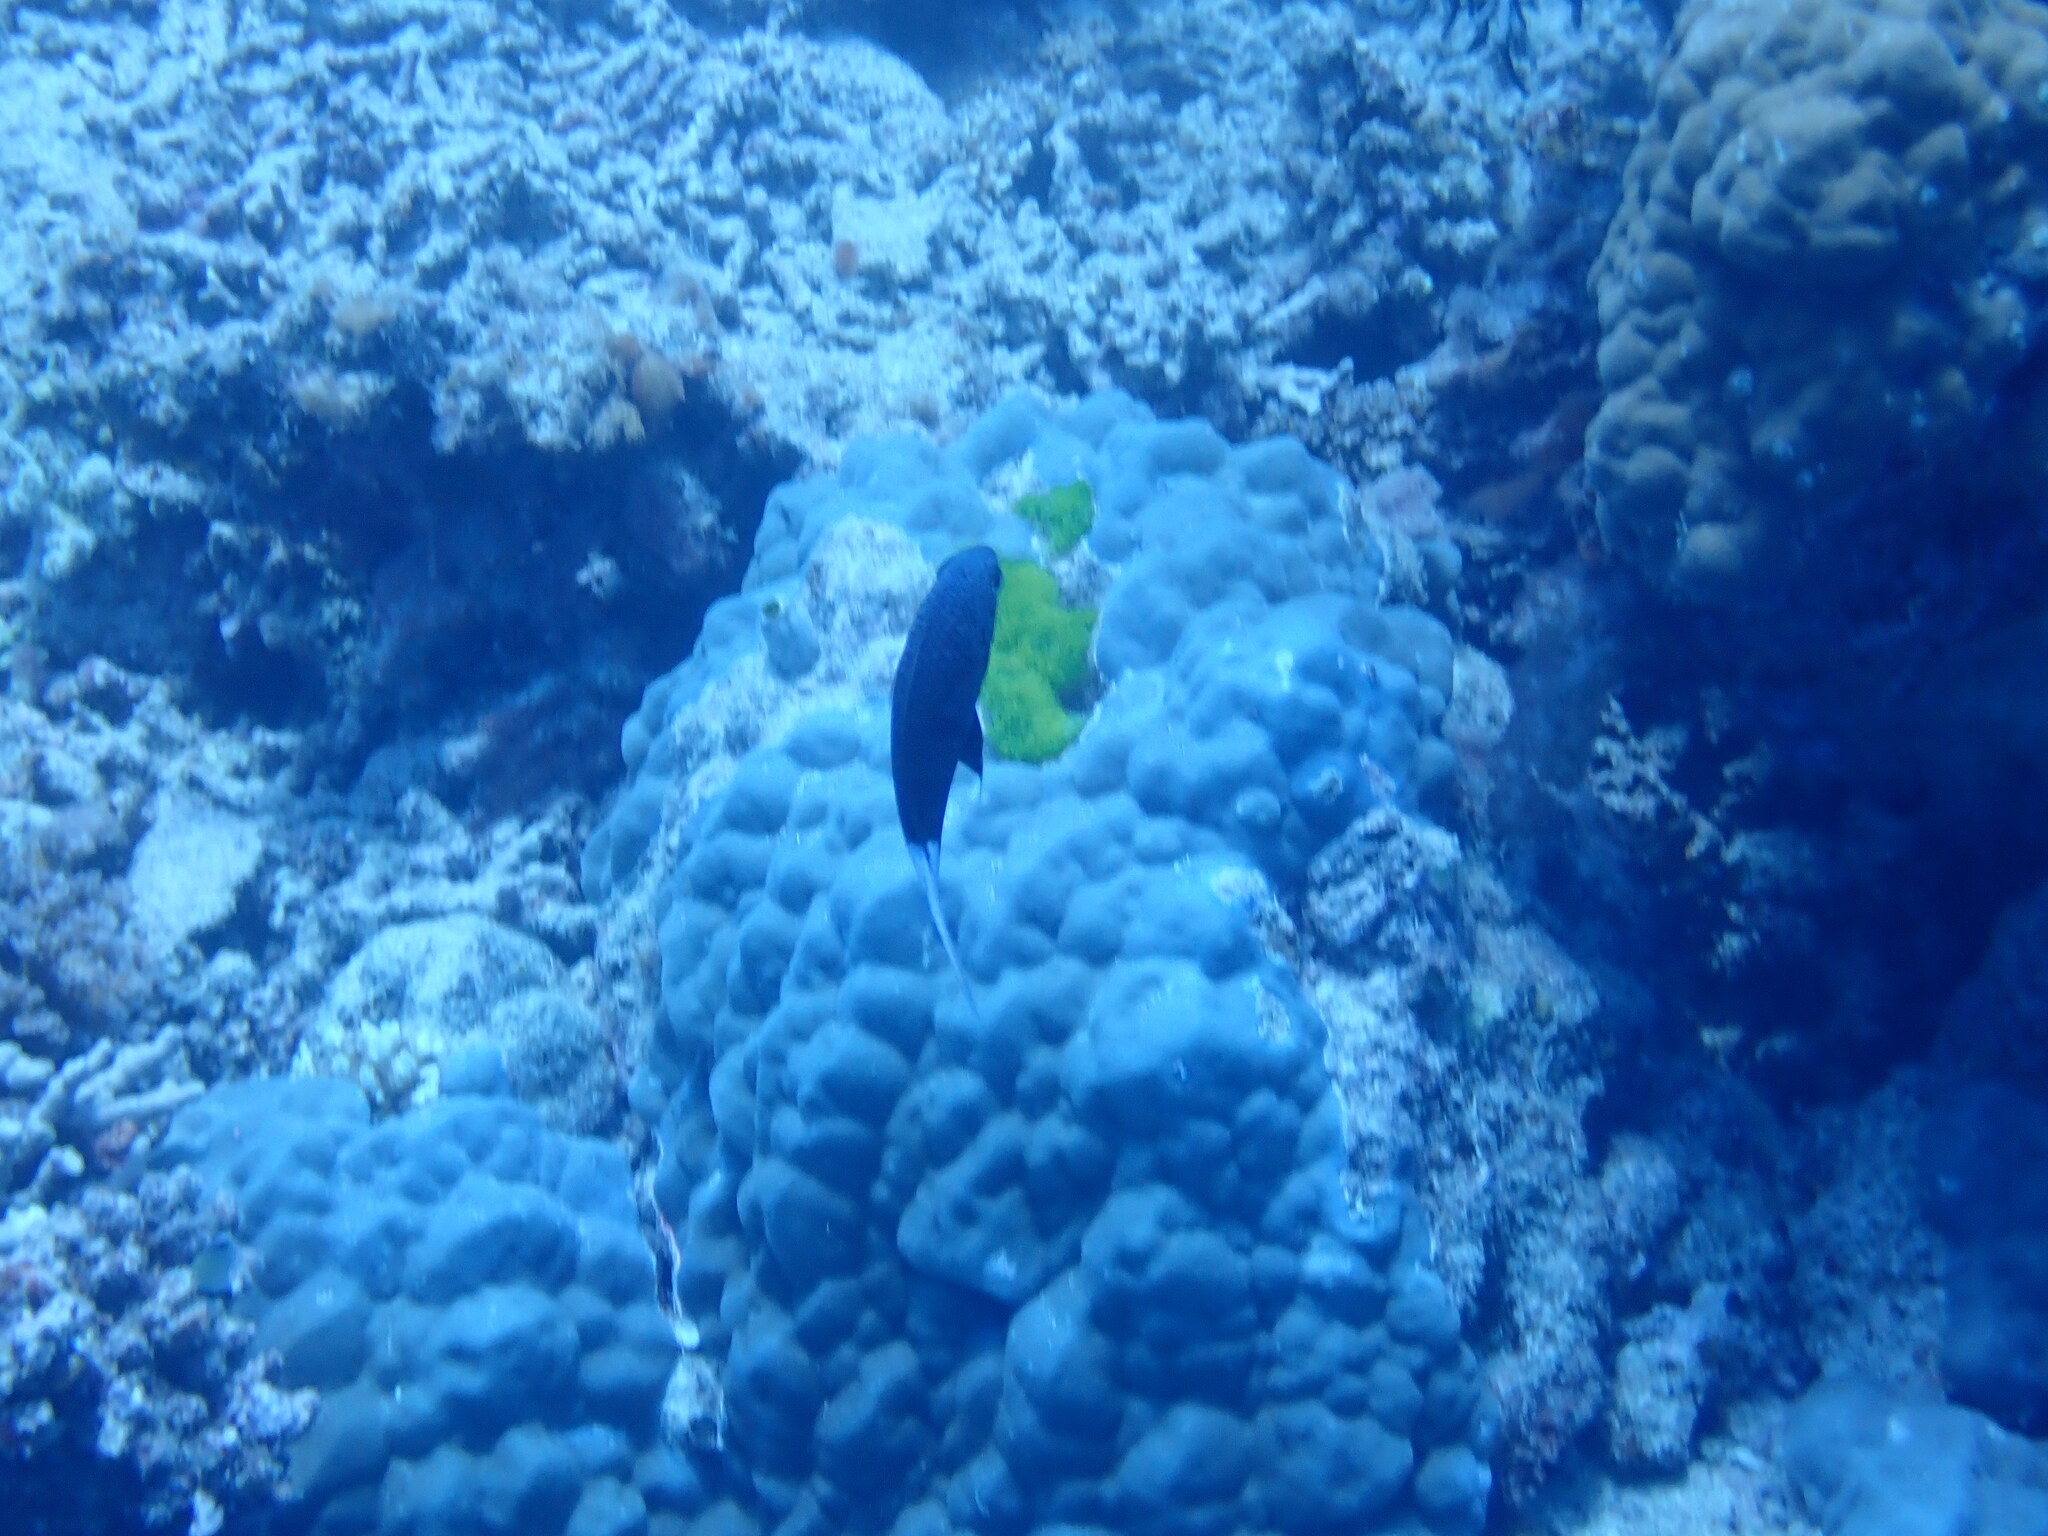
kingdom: Animalia
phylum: Chordata
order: Perciformes
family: Pomacentridae
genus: Chromis
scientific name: Chromis xanthura
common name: Black chromis
